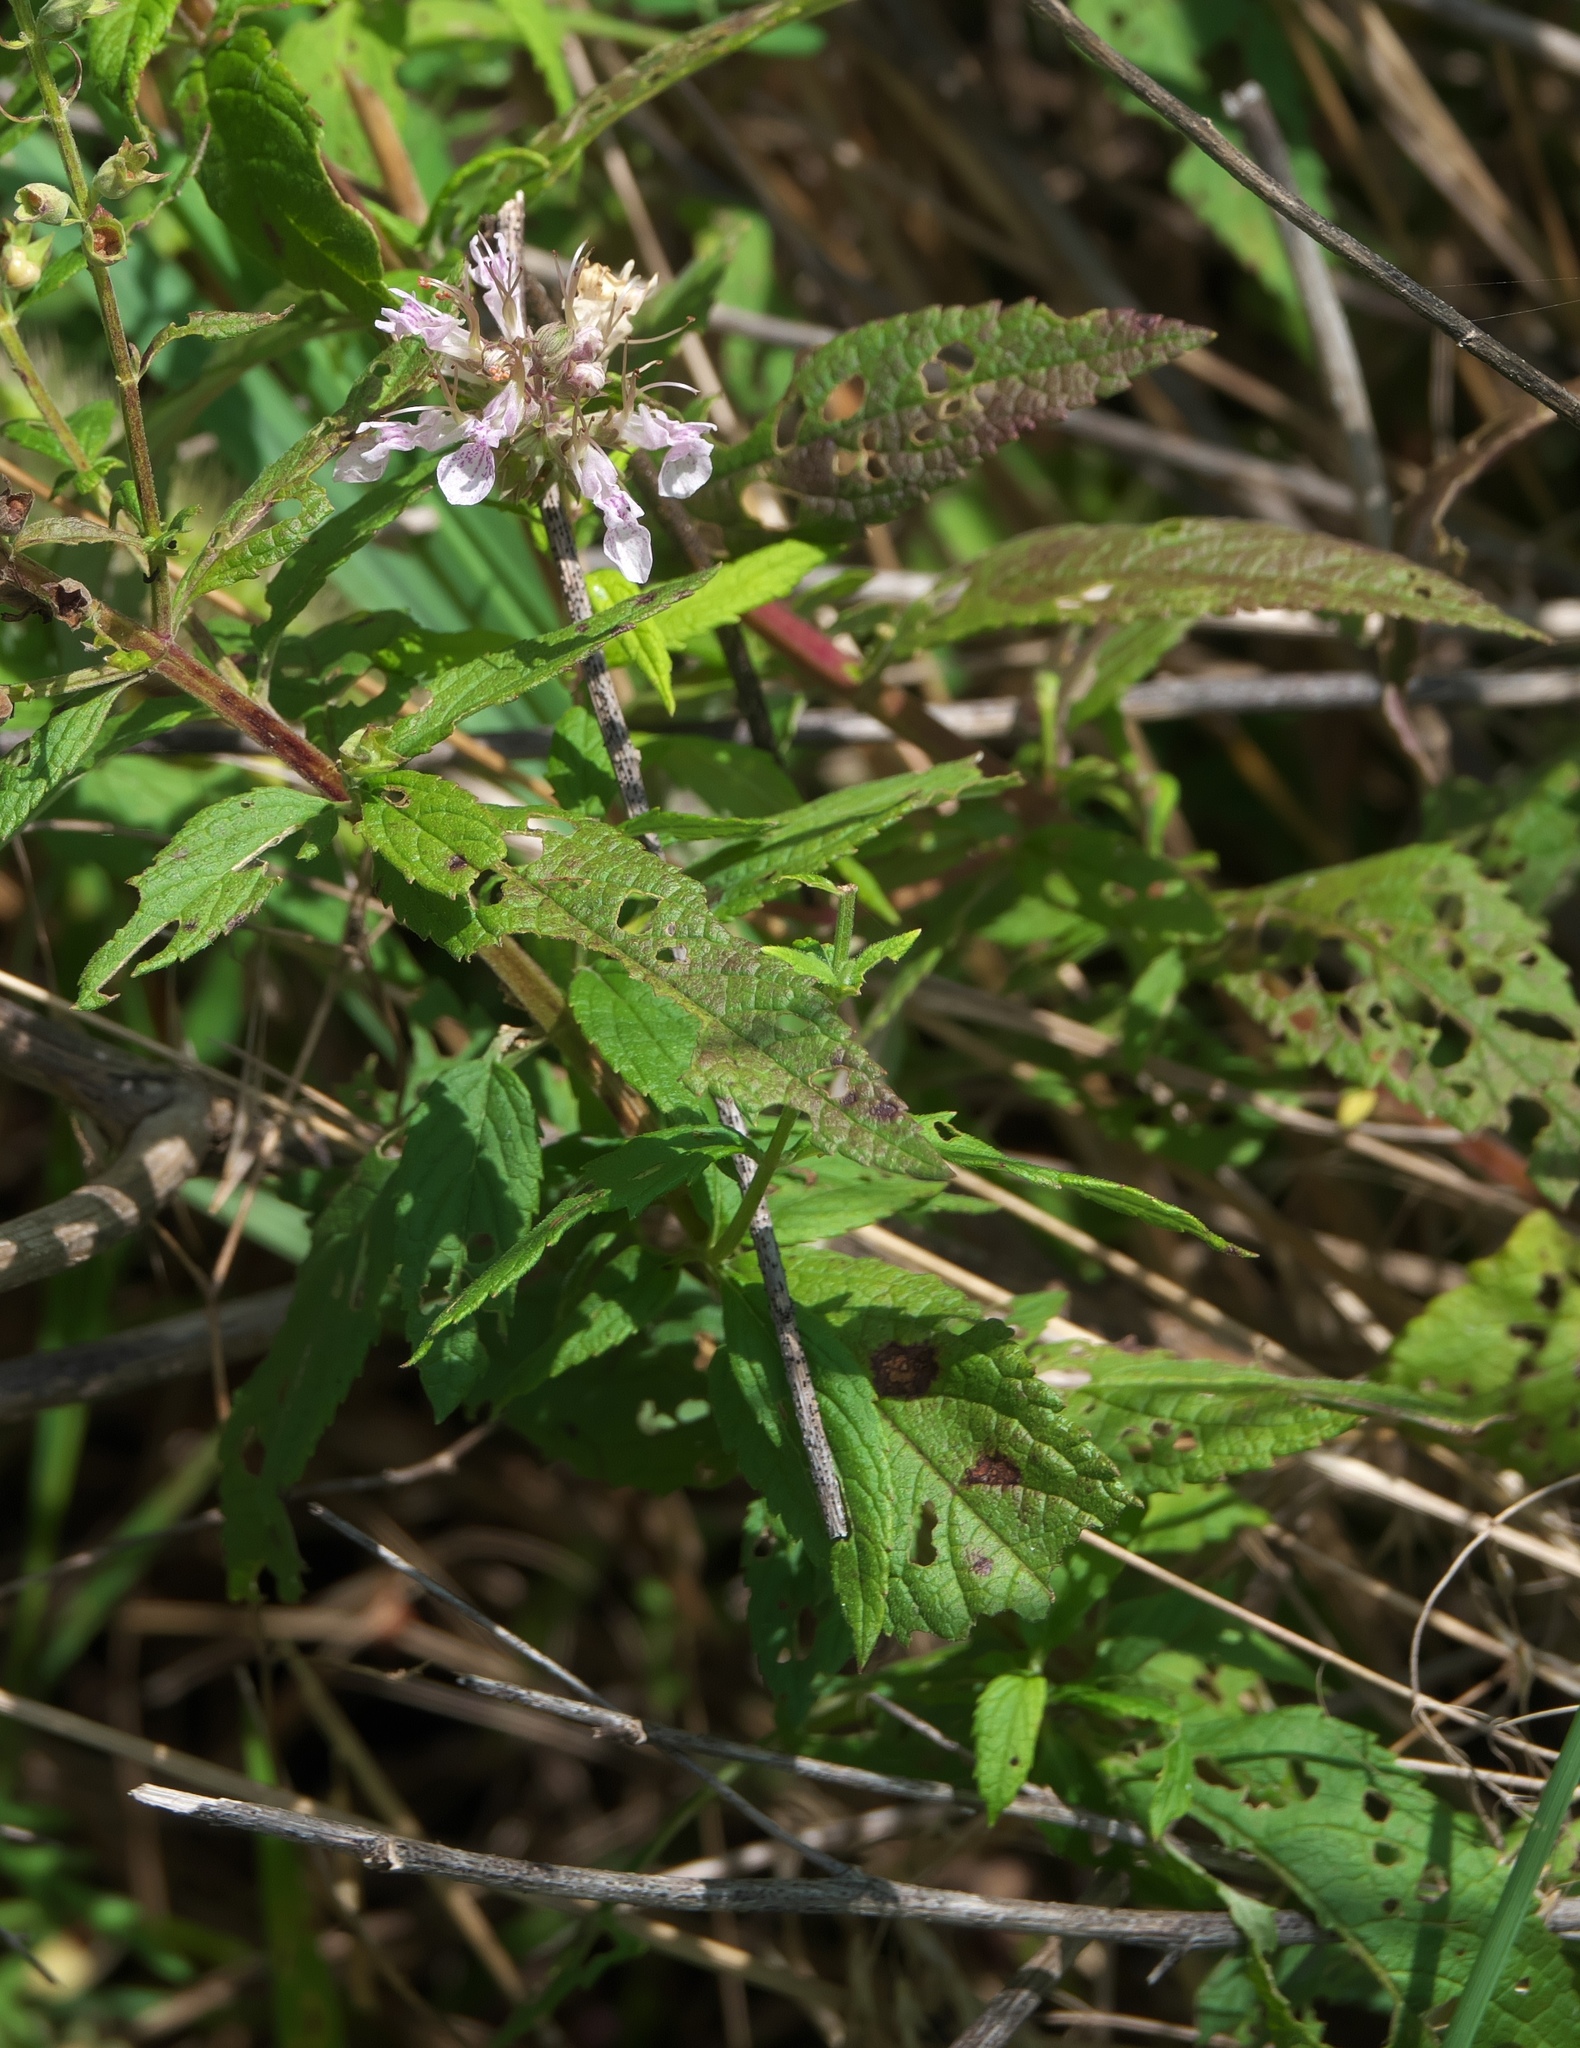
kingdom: Plantae
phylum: Tracheophyta
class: Magnoliopsida
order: Lamiales
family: Lamiaceae
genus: Teucrium
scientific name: Teucrium canadense
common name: American germander
